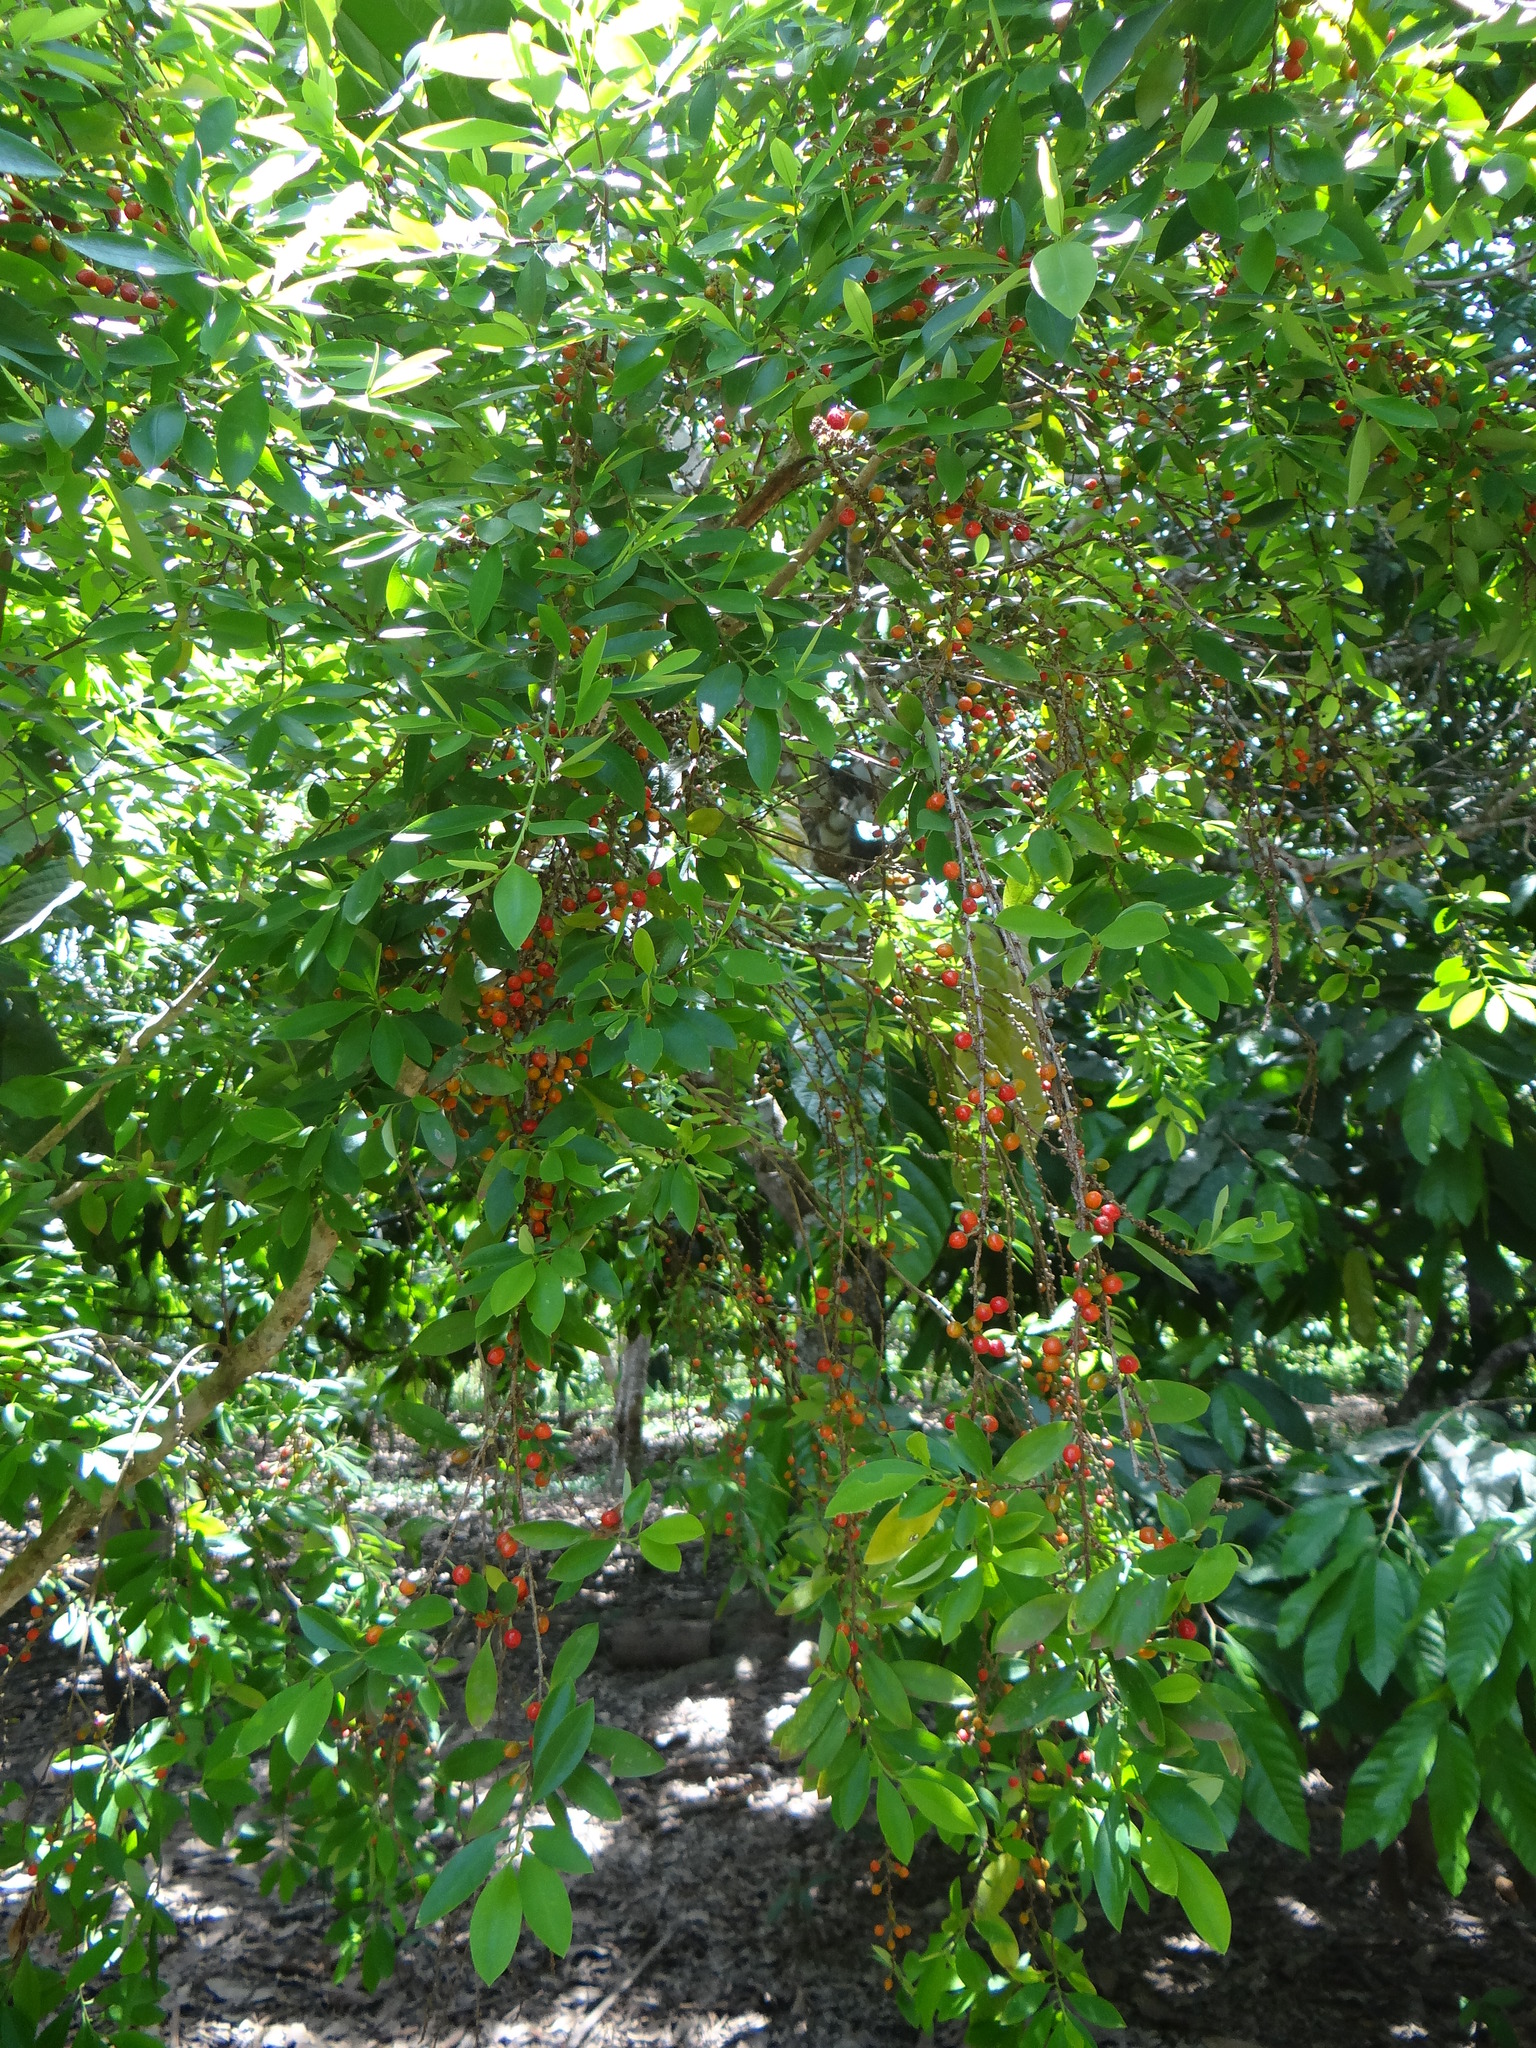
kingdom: Plantae
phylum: Tracheophyta
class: Magnoliopsida
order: Malpighiales
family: Erythroxylaceae
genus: Erythroxylum
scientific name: Erythroxylum coca
